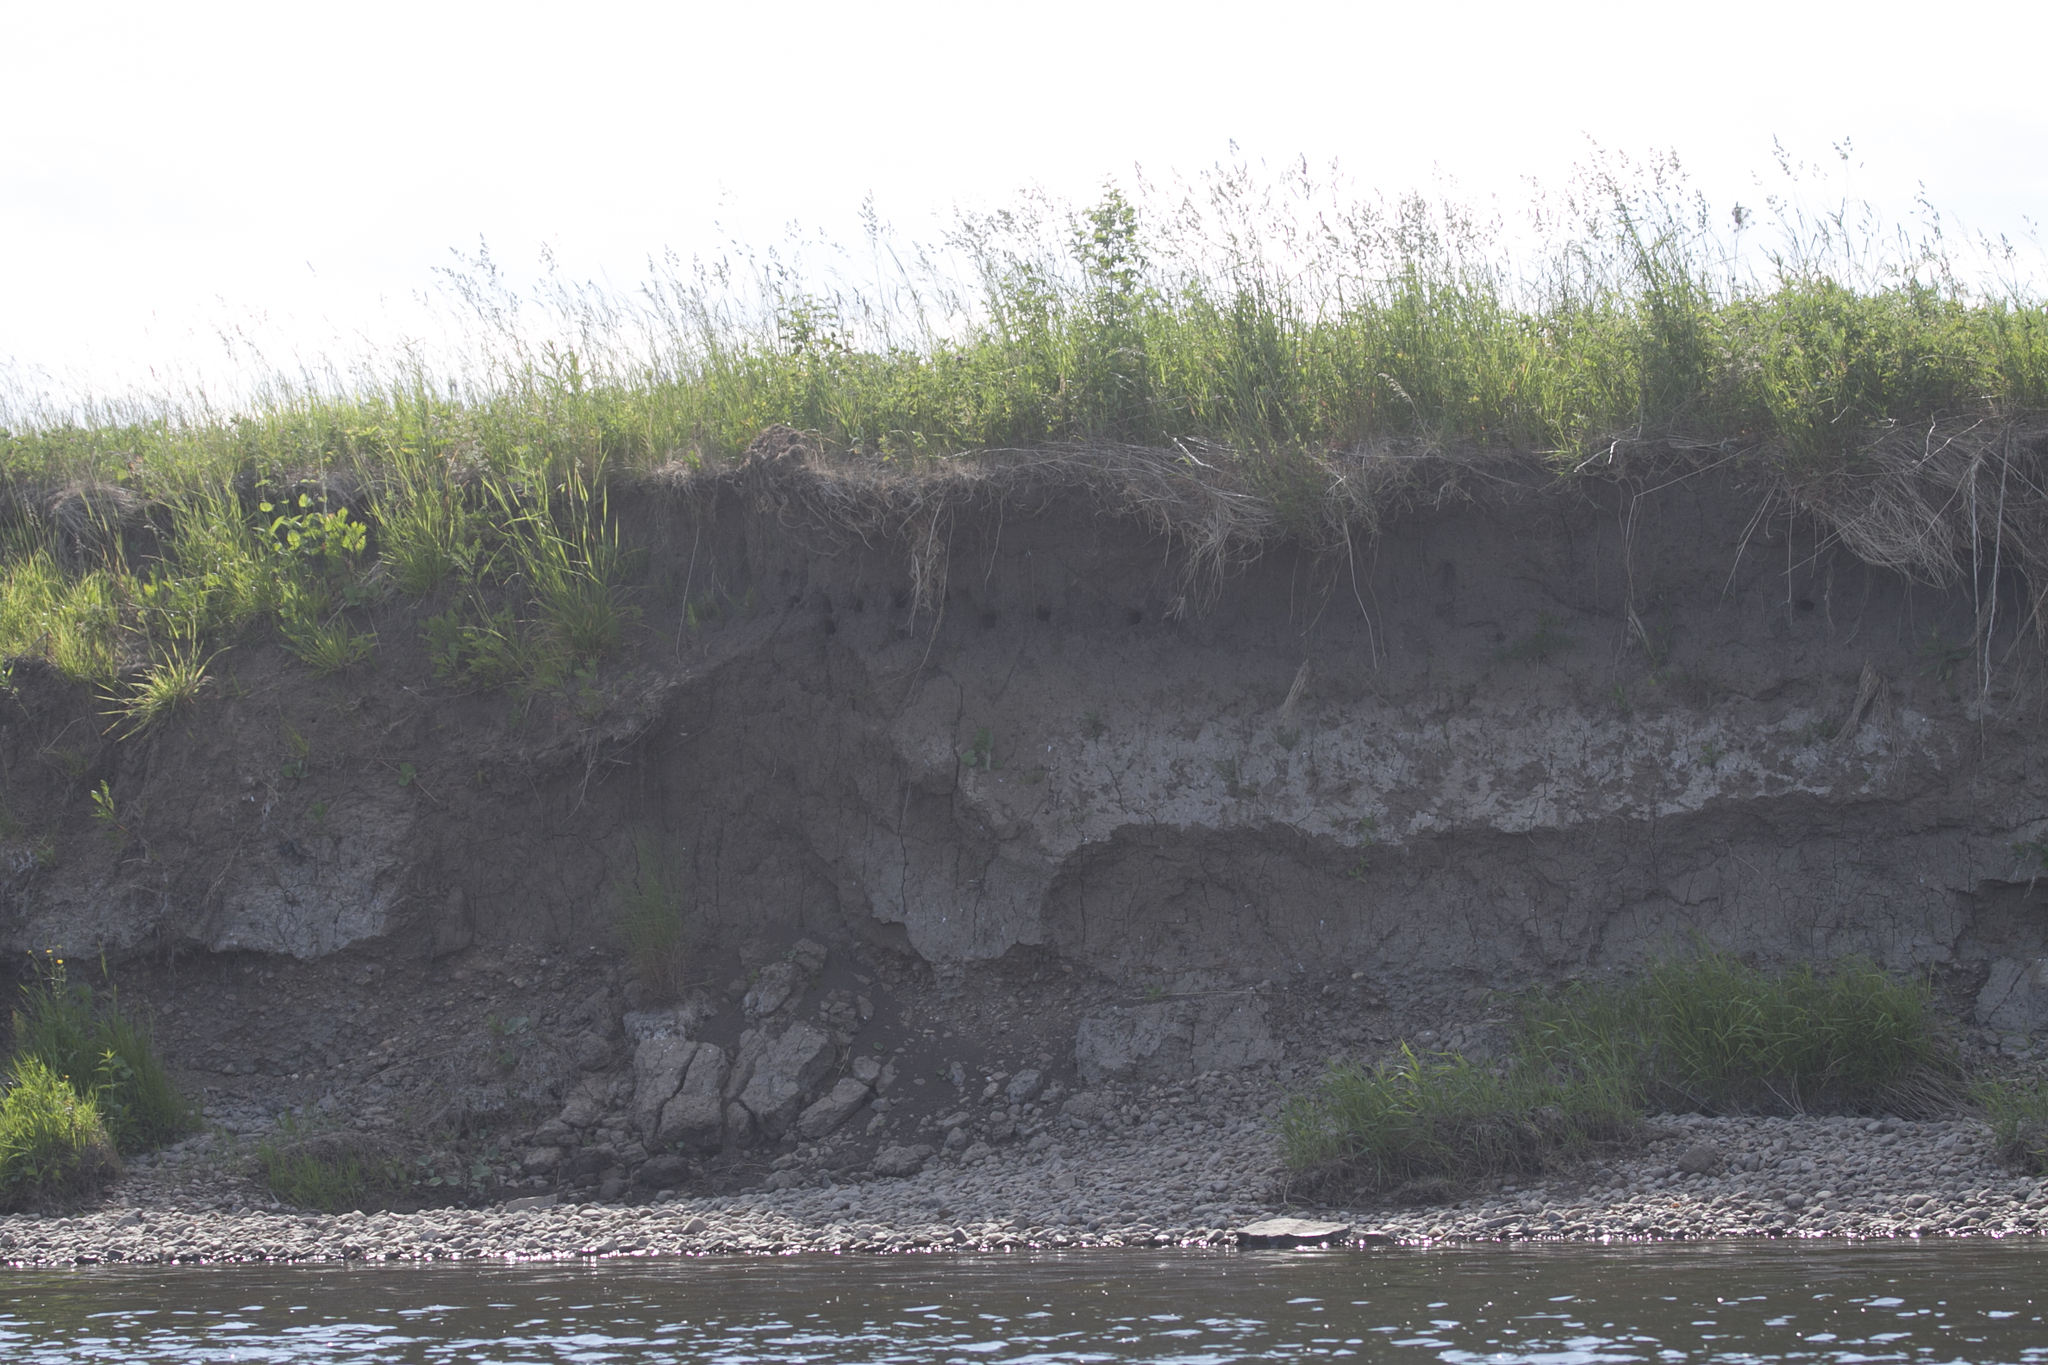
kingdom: Animalia
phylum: Chordata
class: Aves
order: Passeriformes
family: Hirundinidae
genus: Riparia
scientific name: Riparia riparia
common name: Sand martin
